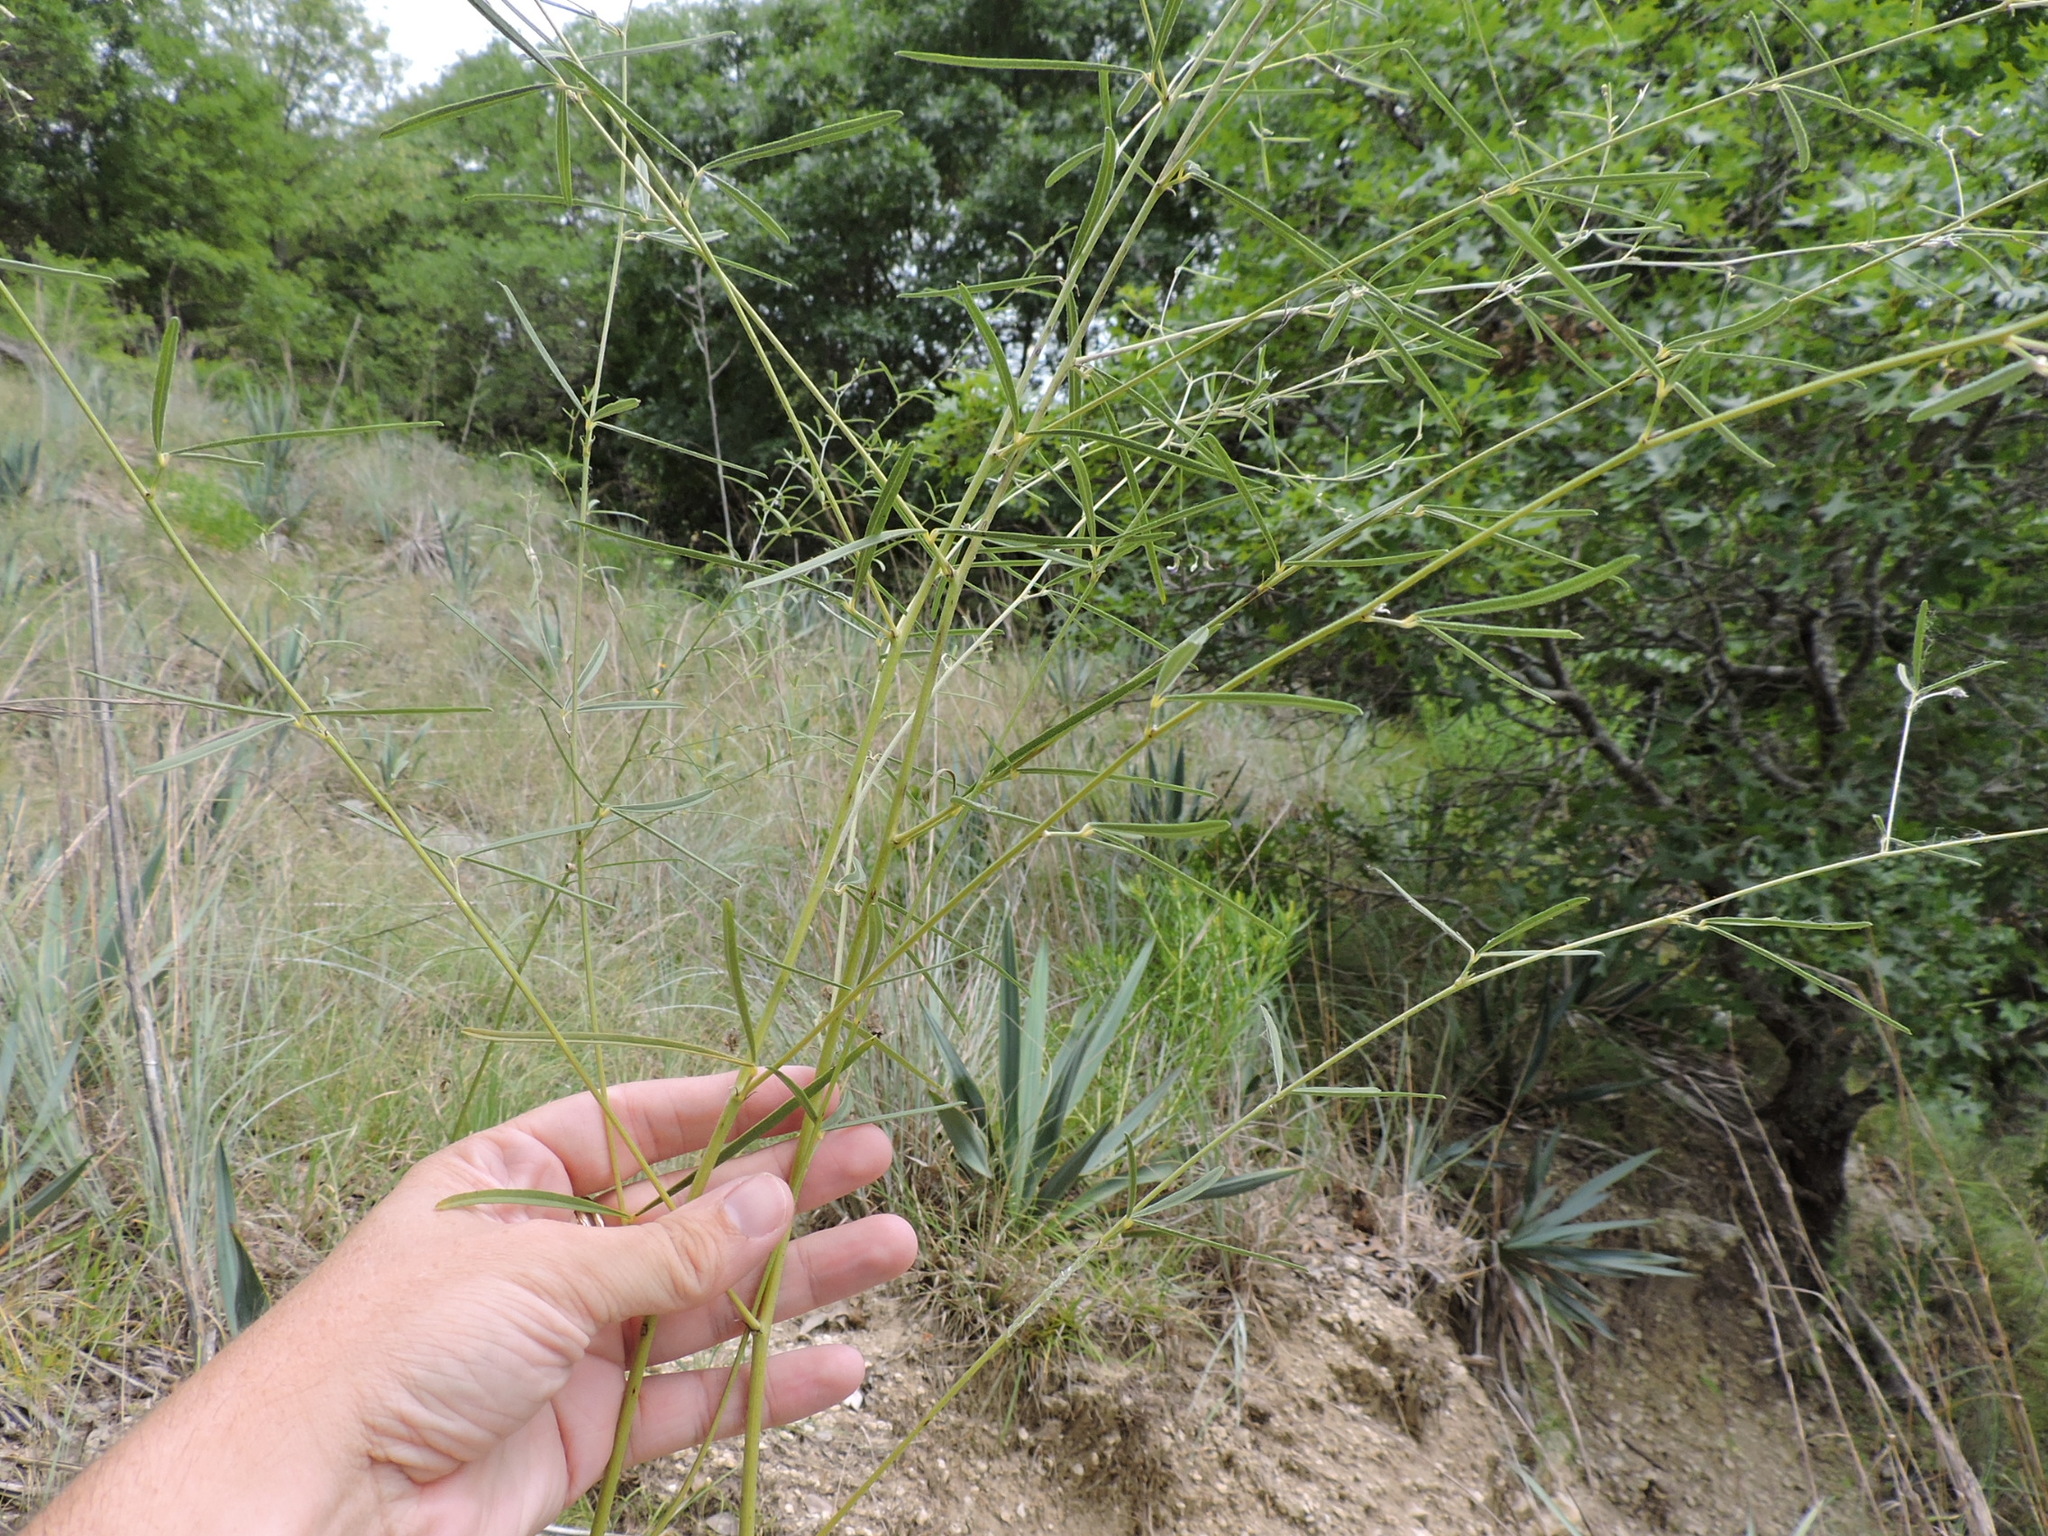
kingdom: Plantae
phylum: Tracheophyta
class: Magnoliopsida
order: Fabales
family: Fabaceae
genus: Pediomelum
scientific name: Pediomelum linearifolium
